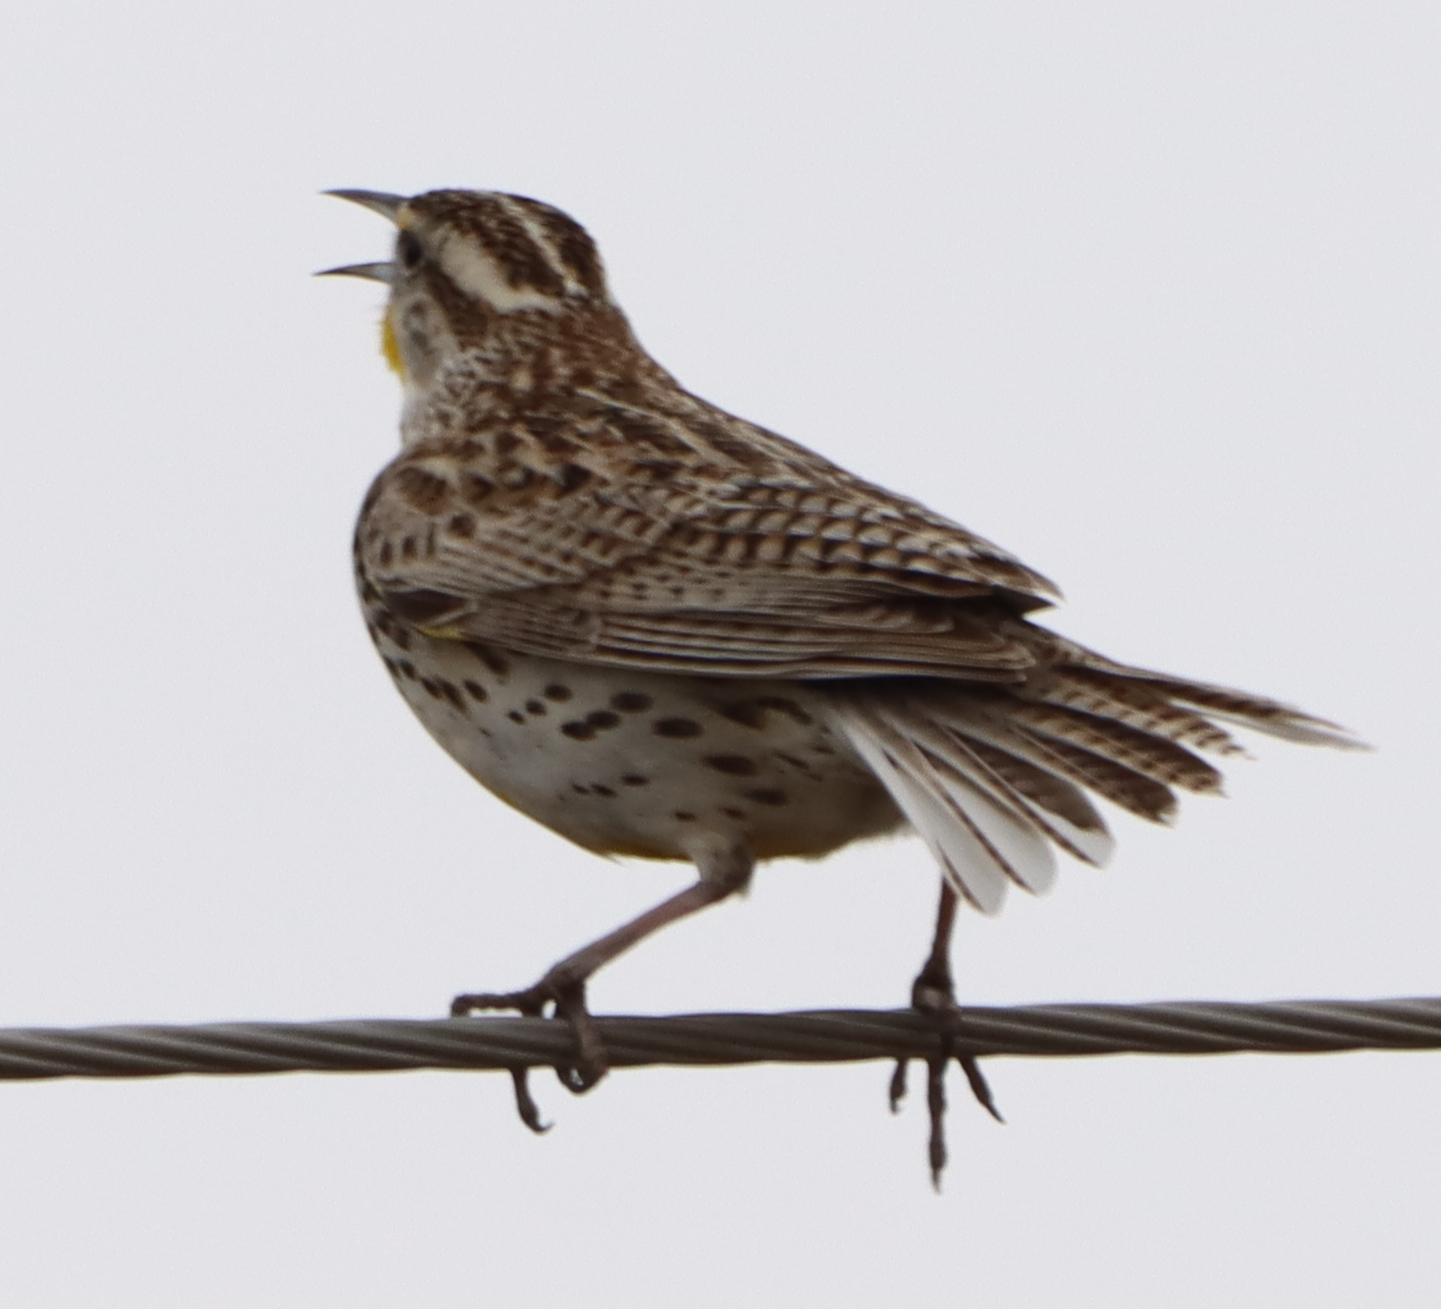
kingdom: Animalia
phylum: Chordata
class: Aves
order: Passeriformes
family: Icteridae
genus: Sturnella
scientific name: Sturnella neglecta
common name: Western meadowlark
